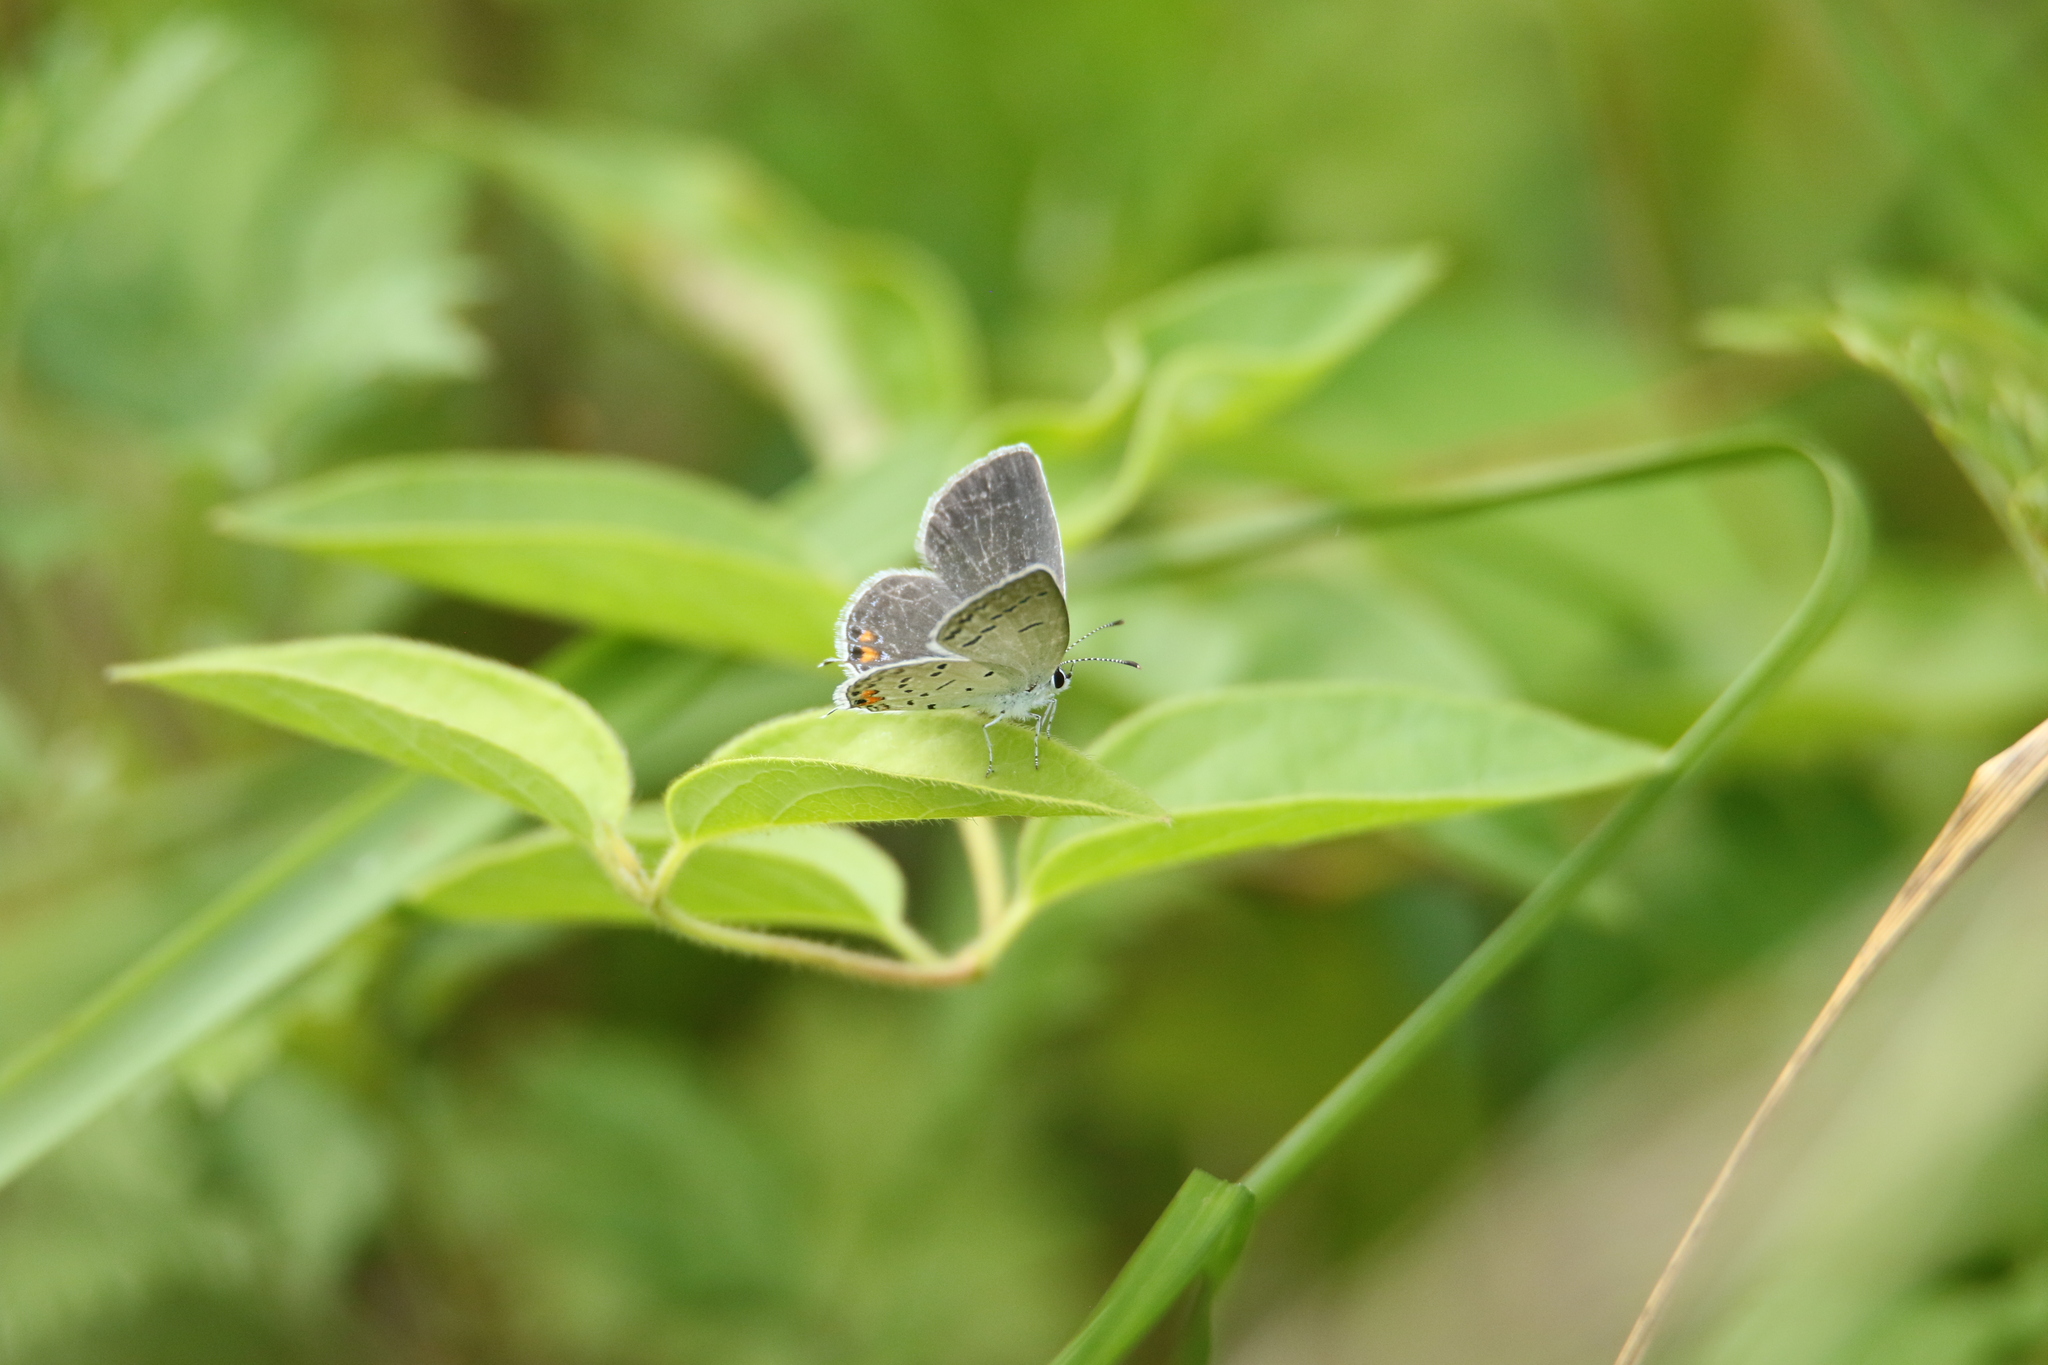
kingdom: Animalia
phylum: Arthropoda
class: Insecta
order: Lepidoptera
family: Lycaenidae
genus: Elkalyce
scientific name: Elkalyce comyntas
